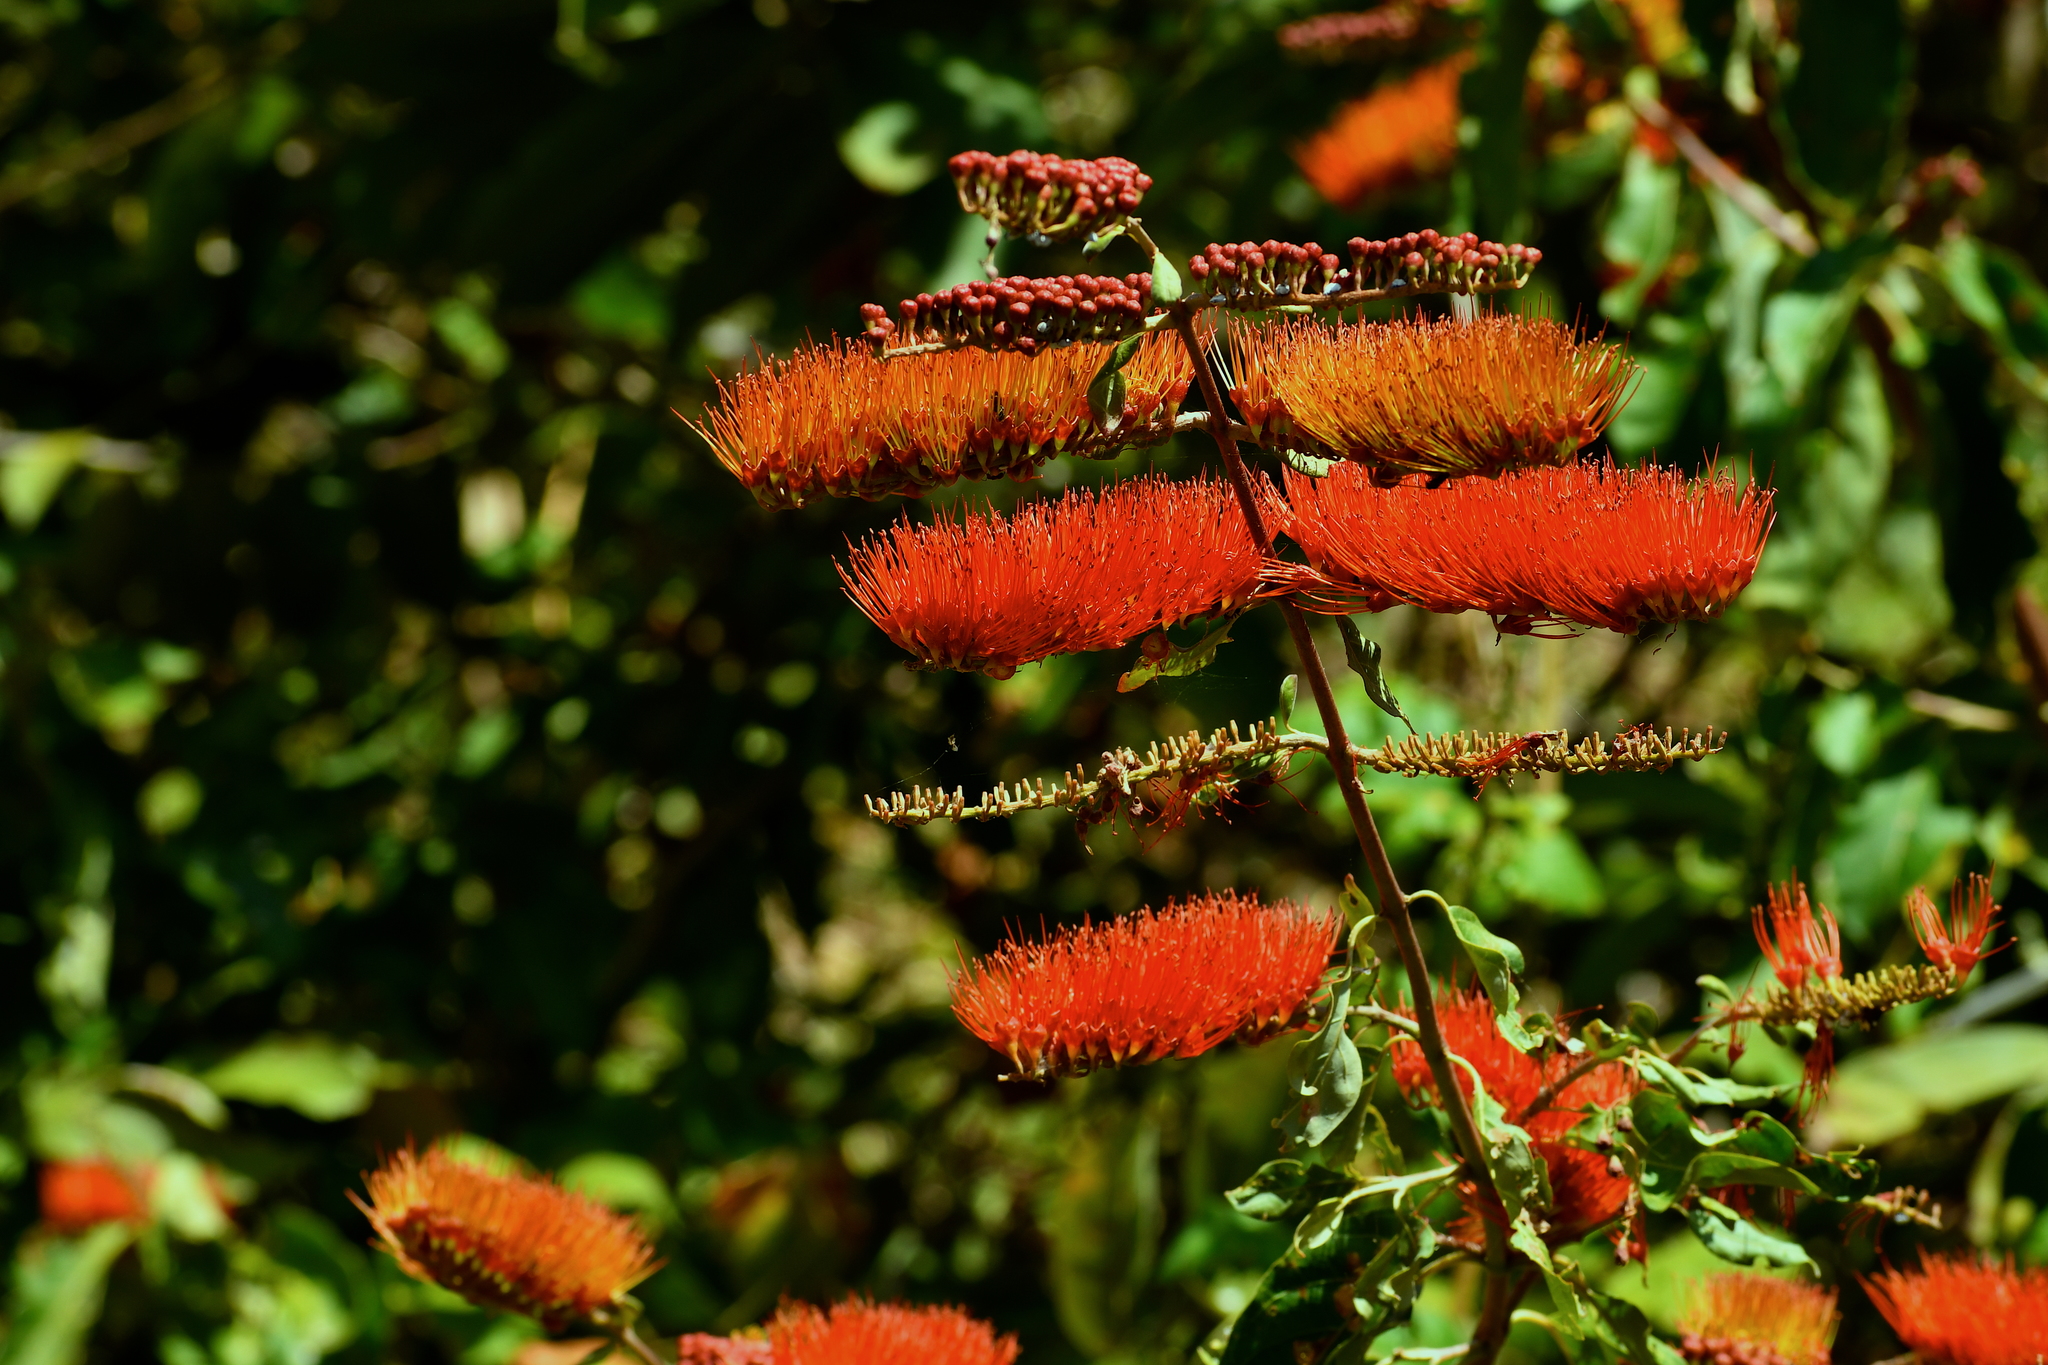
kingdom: Plantae
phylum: Tracheophyta
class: Magnoliopsida
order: Myrtales
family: Combretaceae
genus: Combretum
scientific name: Combretum fruticosum
